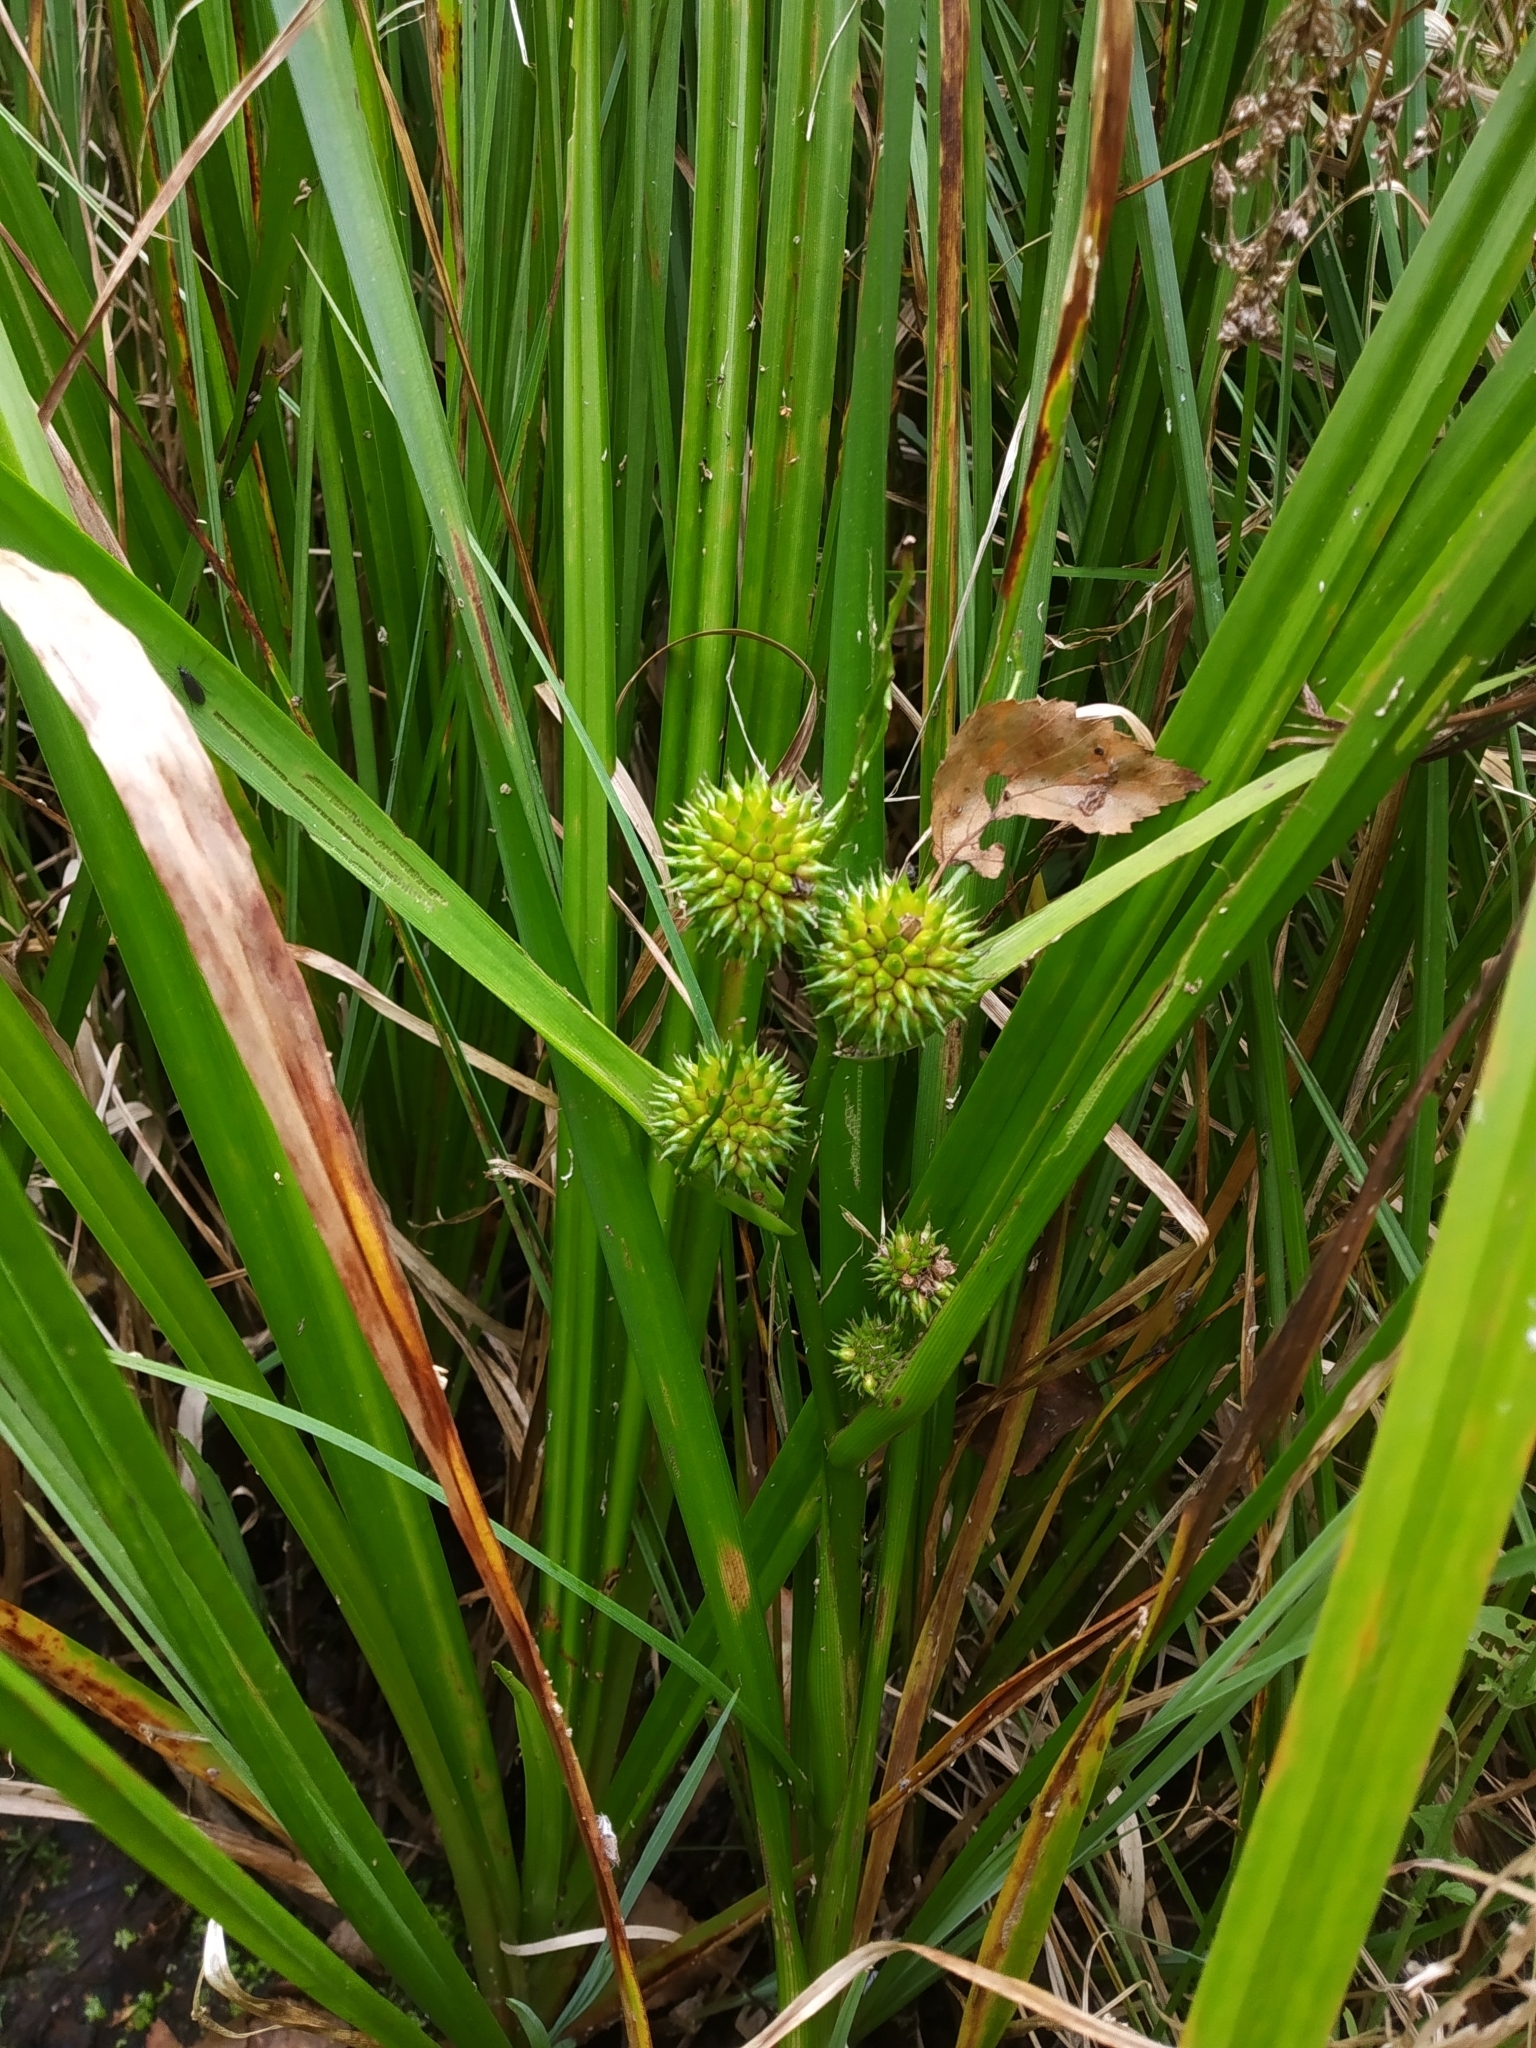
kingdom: Plantae
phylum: Tracheophyta
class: Liliopsida
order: Poales
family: Typhaceae
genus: Sparganium
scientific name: Sparganium erectum
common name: Branched bur-reed
